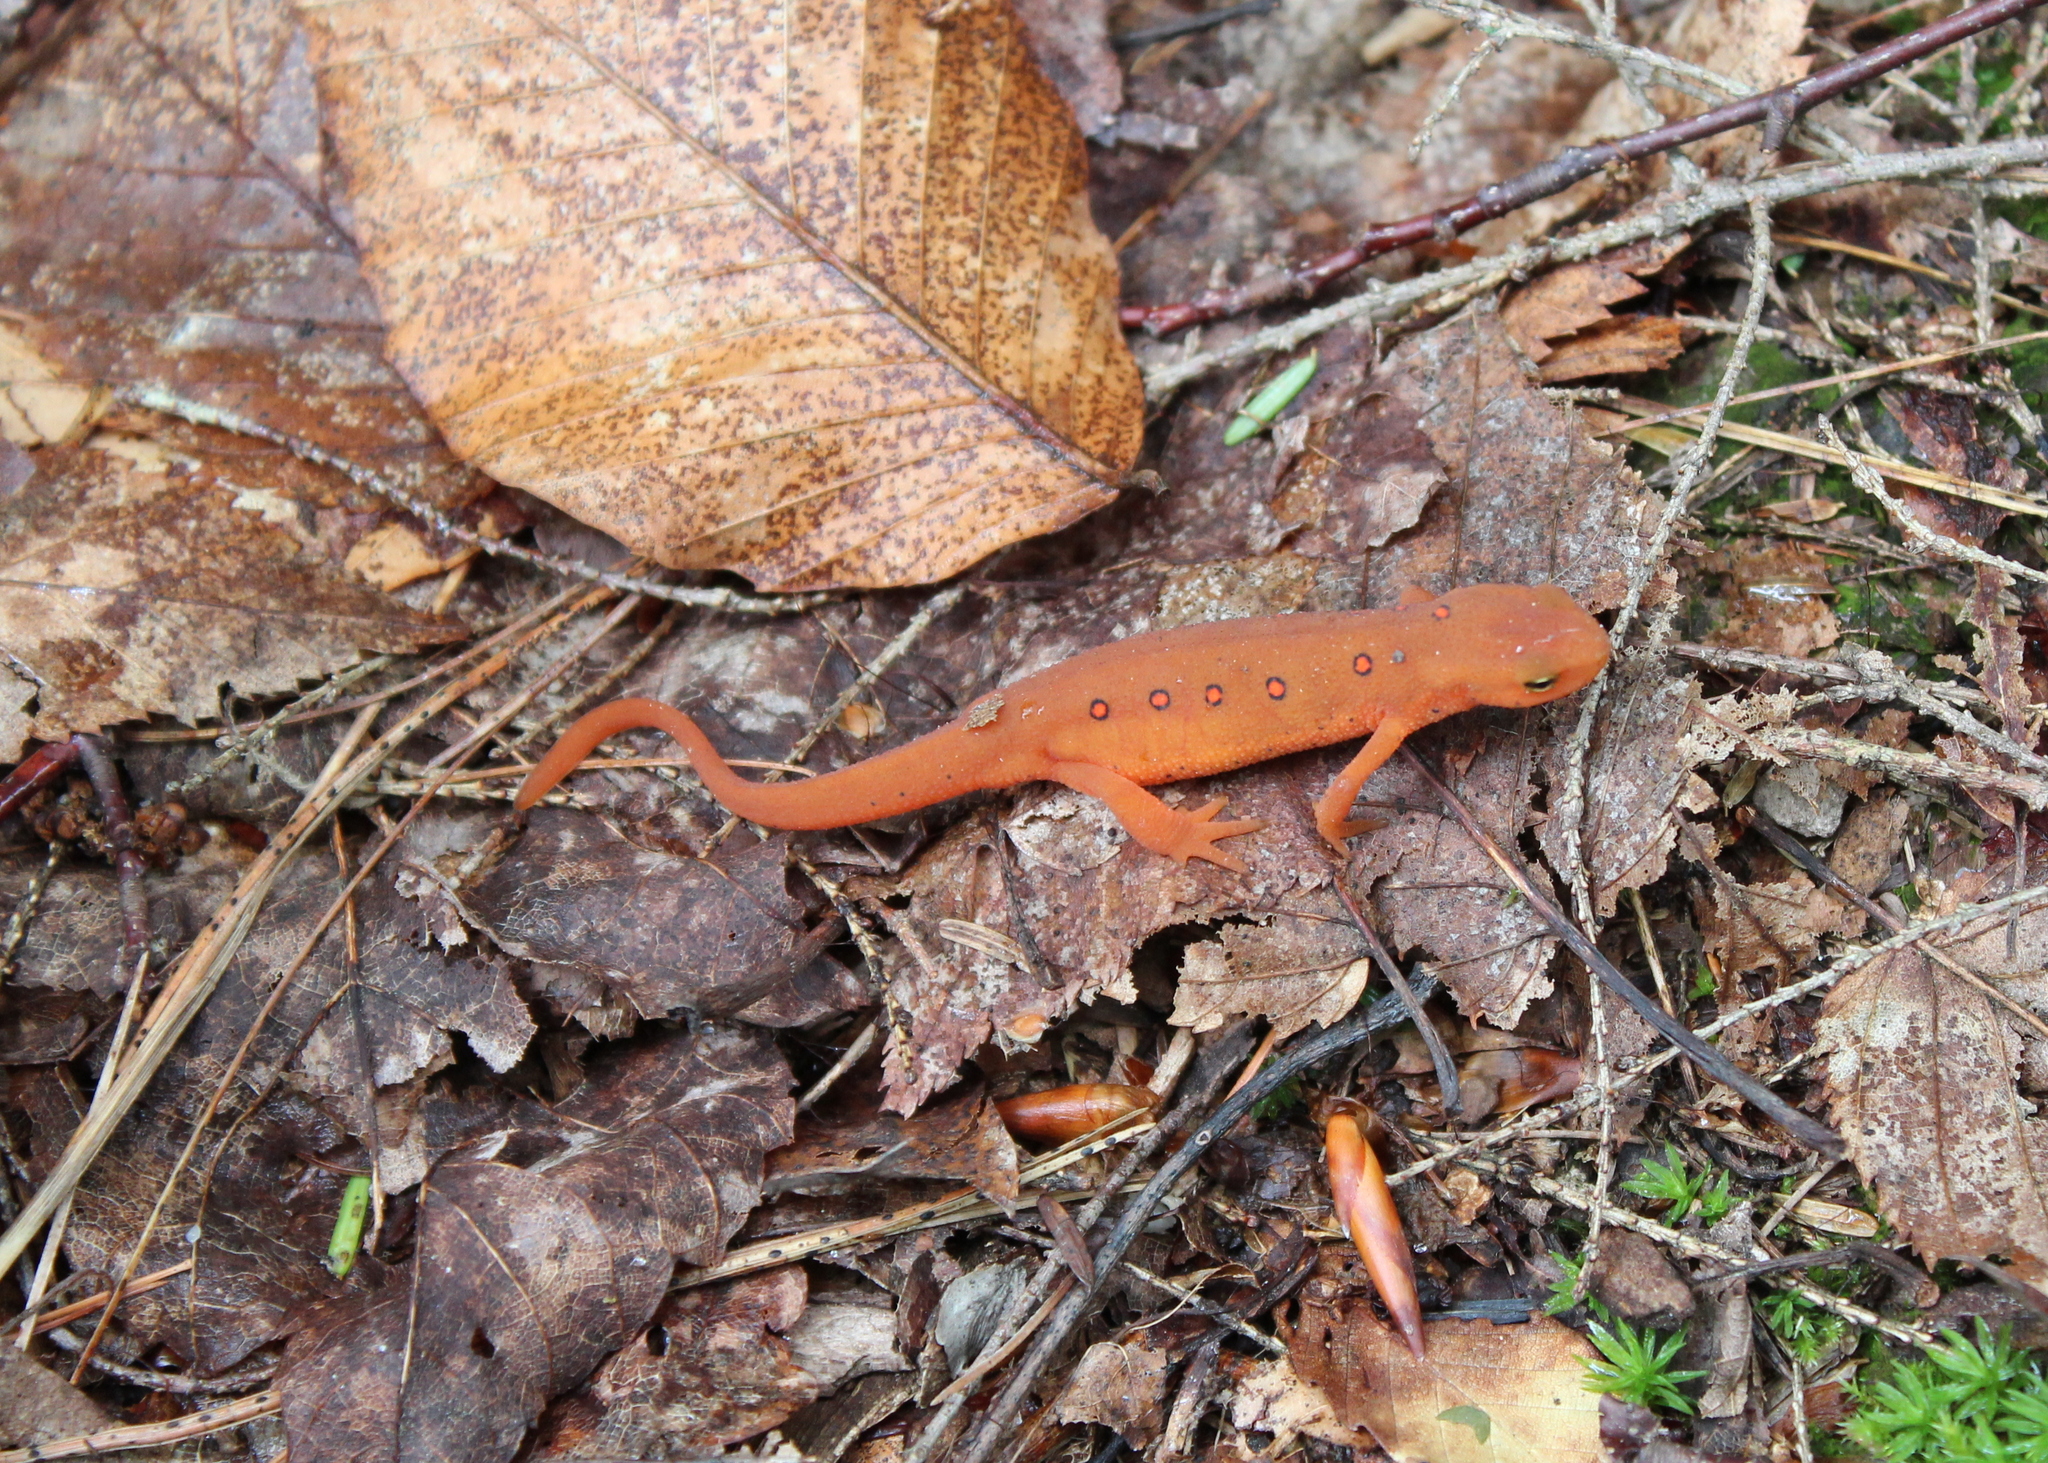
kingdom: Animalia
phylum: Chordata
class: Amphibia
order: Caudata
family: Salamandridae
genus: Notophthalmus
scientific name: Notophthalmus viridescens
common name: Eastern newt
